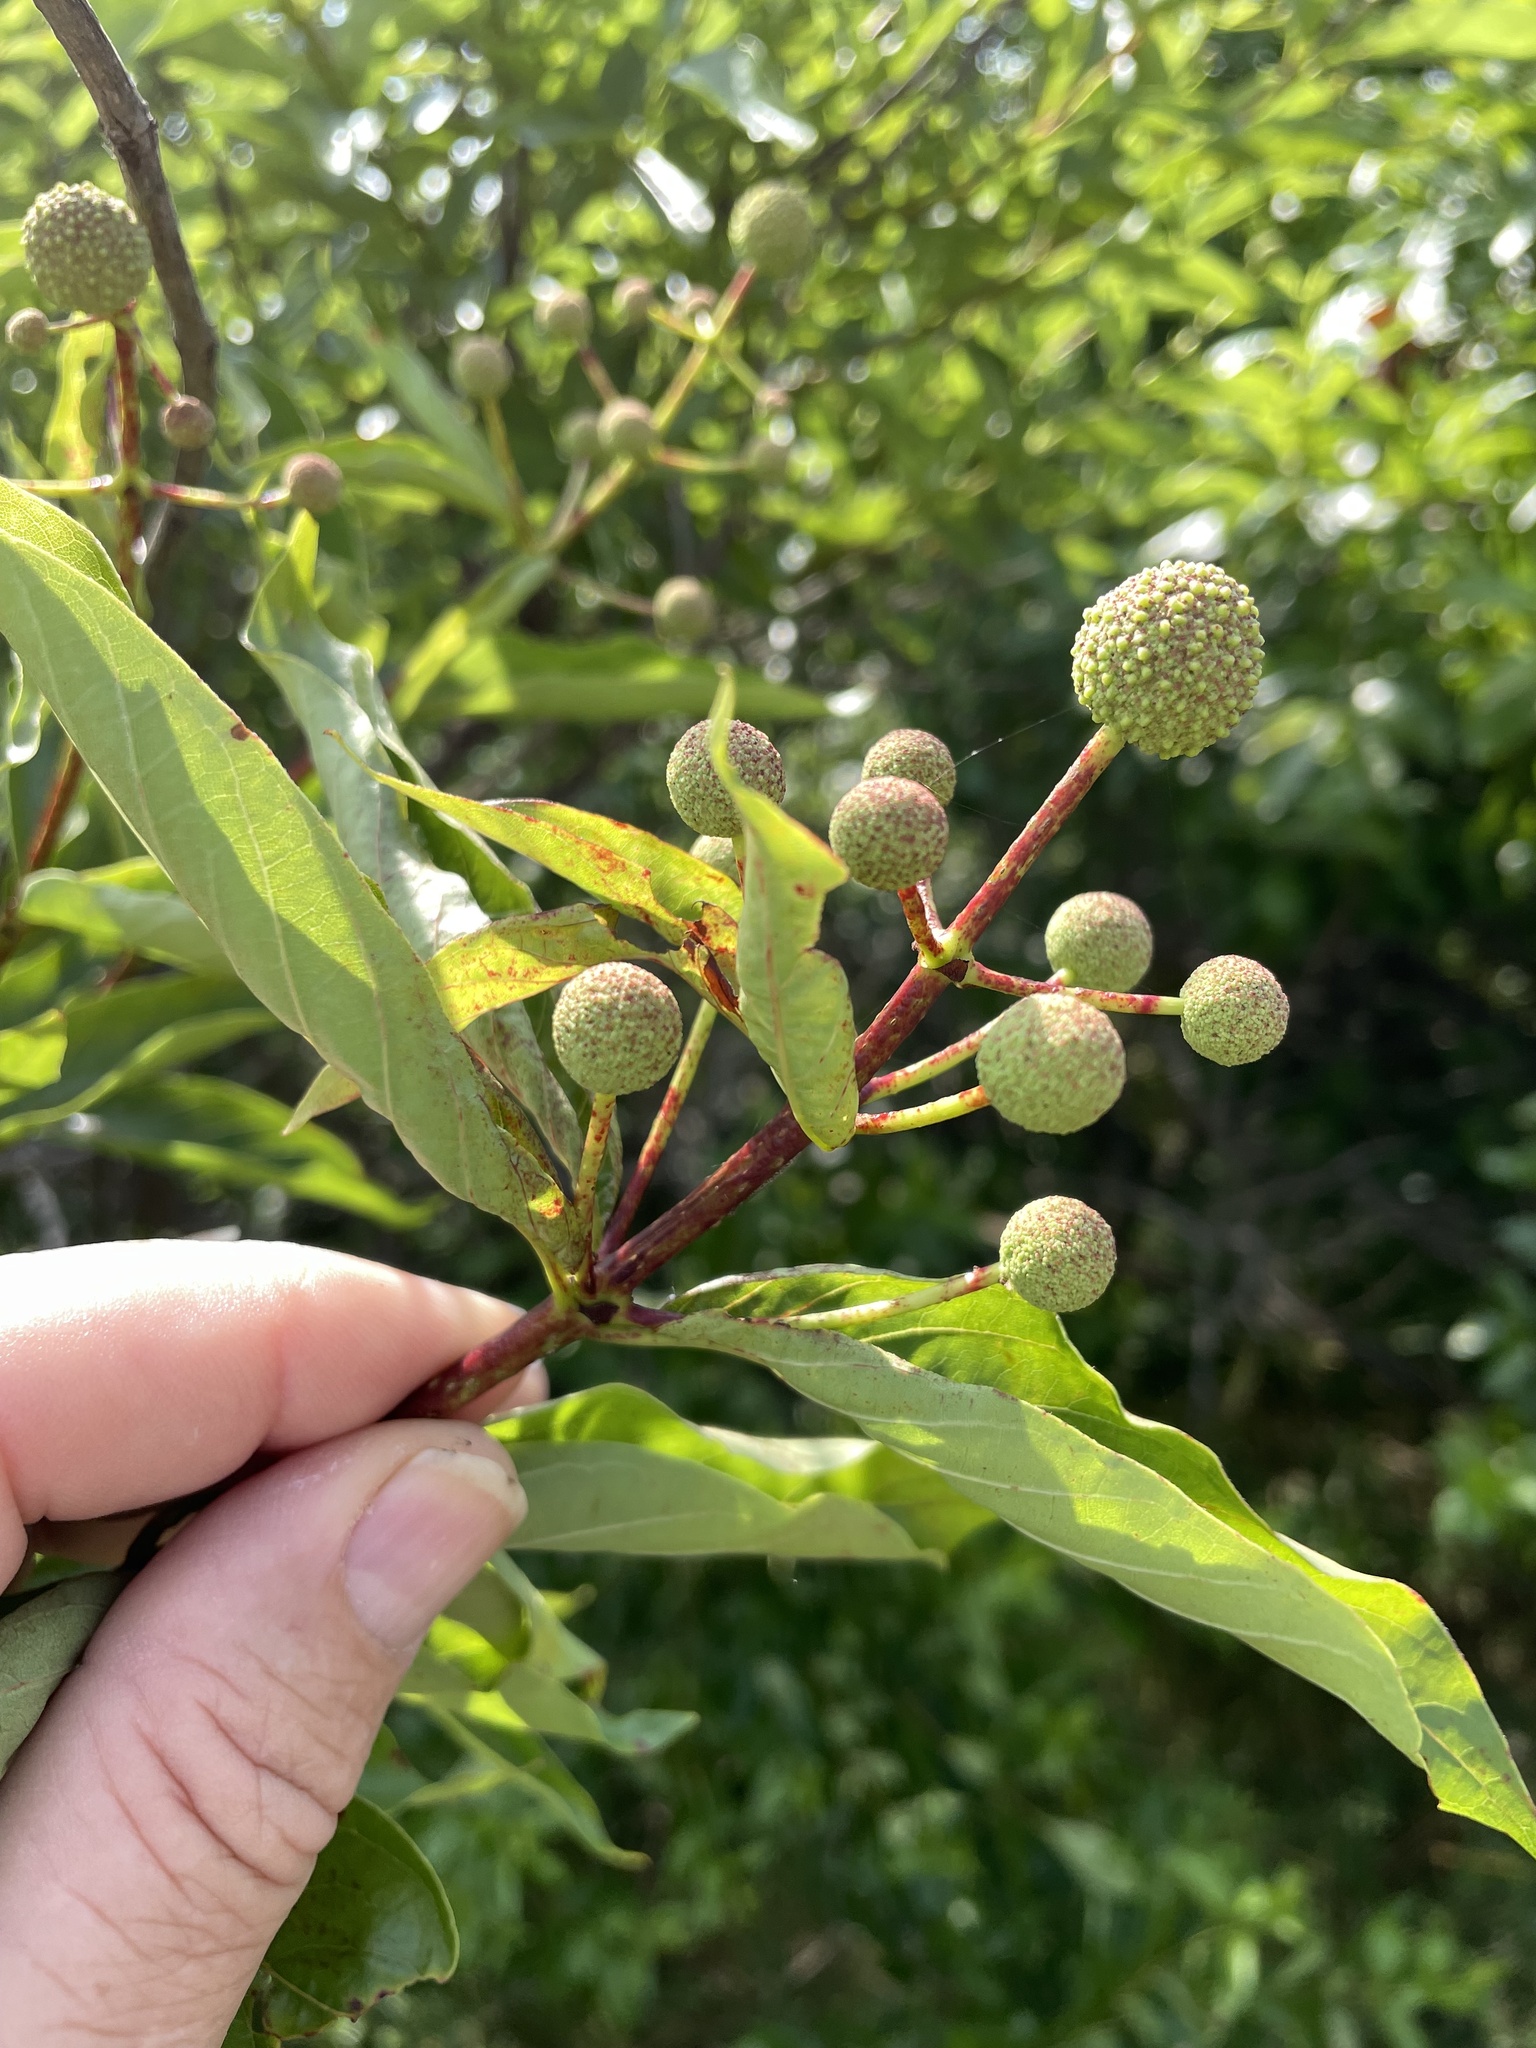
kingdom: Plantae
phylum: Tracheophyta
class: Magnoliopsida
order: Gentianales
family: Rubiaceae
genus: Cephalanthus
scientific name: Cephalanthus occidentalis
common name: Button-willow
